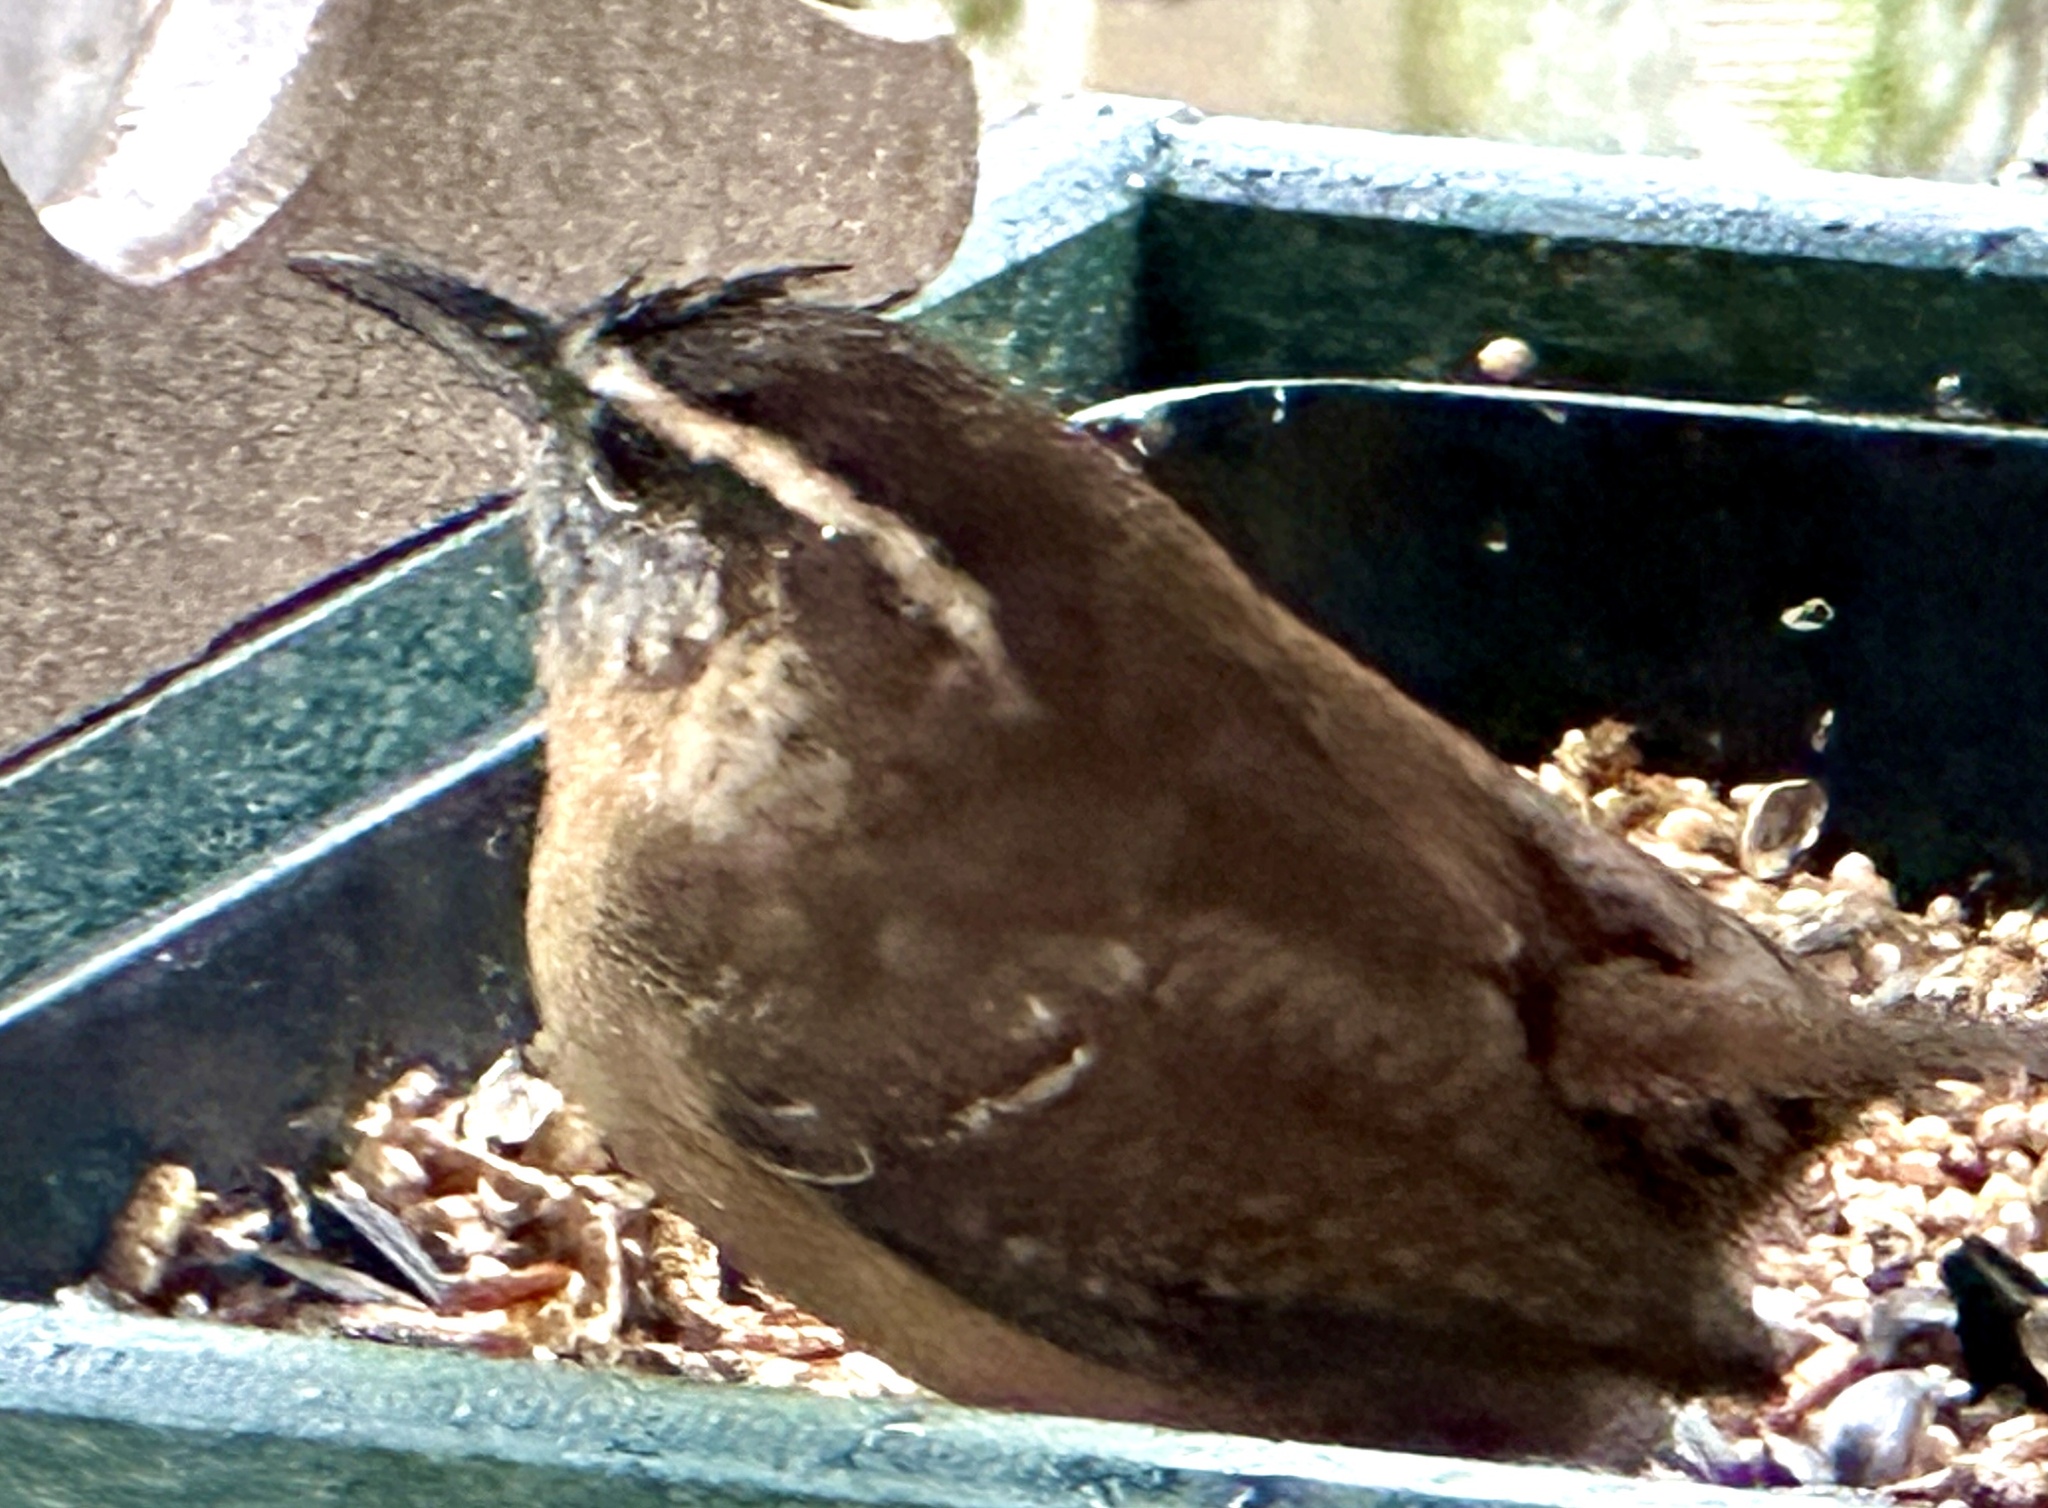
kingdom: Animalia
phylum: Chordata
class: Aves
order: Passeriformes
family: Troglodytidae
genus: Thryothorus
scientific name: Thryothorus ludovicianus
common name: Carolina wren
